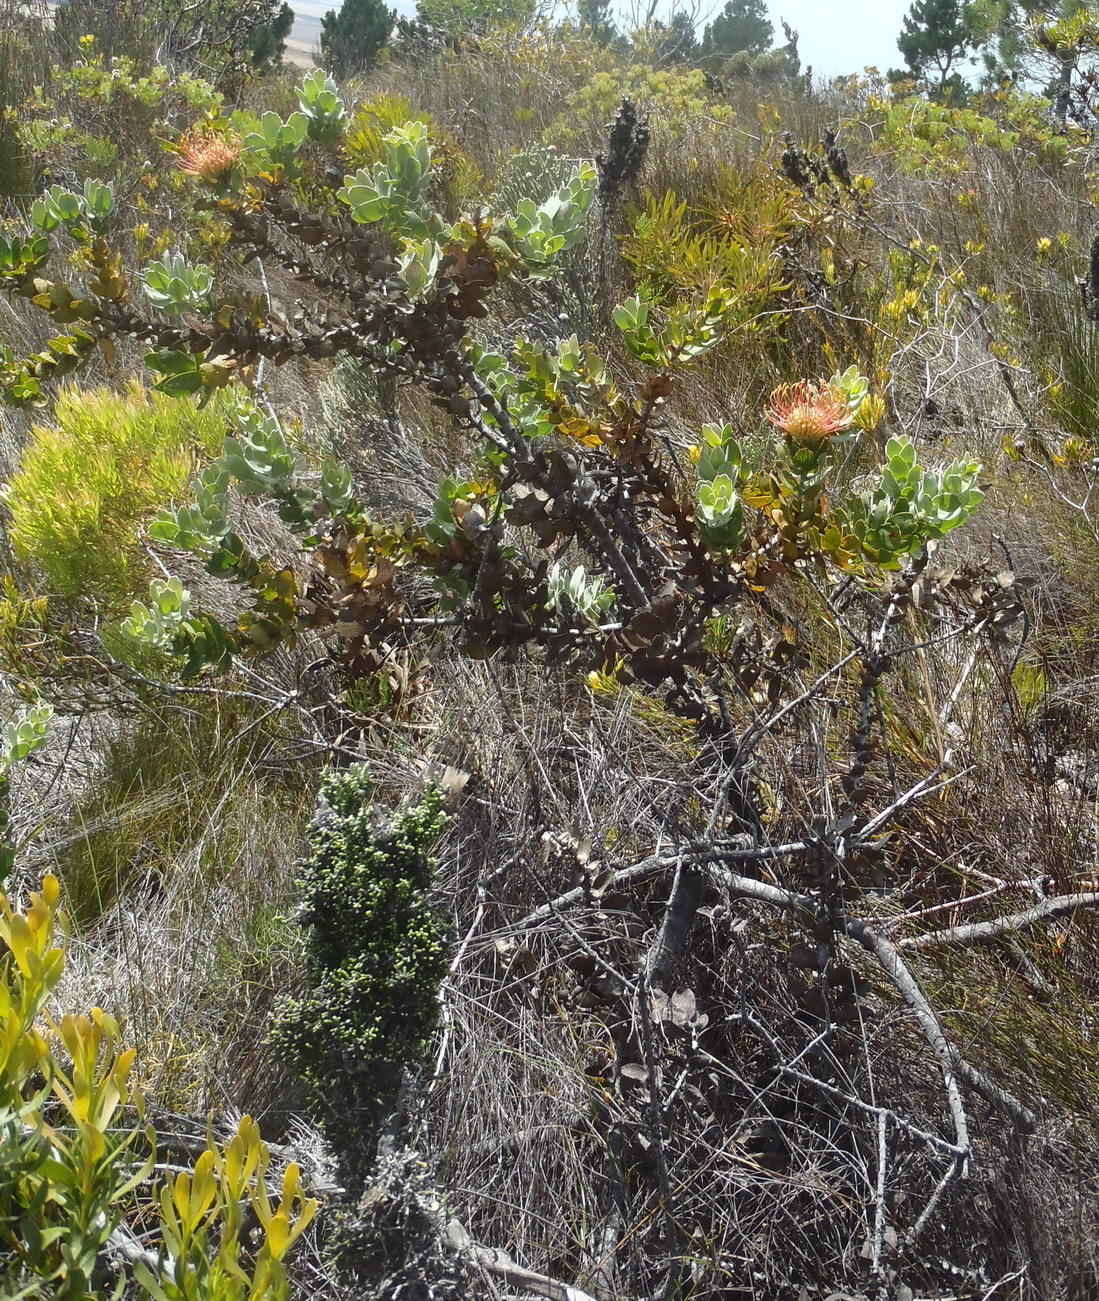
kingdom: Plantae
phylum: Tracheophyta
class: Magnoliopsida
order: Proteales
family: Proteaceae
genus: Leucospermum
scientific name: Leucospermum cordifolium
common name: Red pincushion-protea
